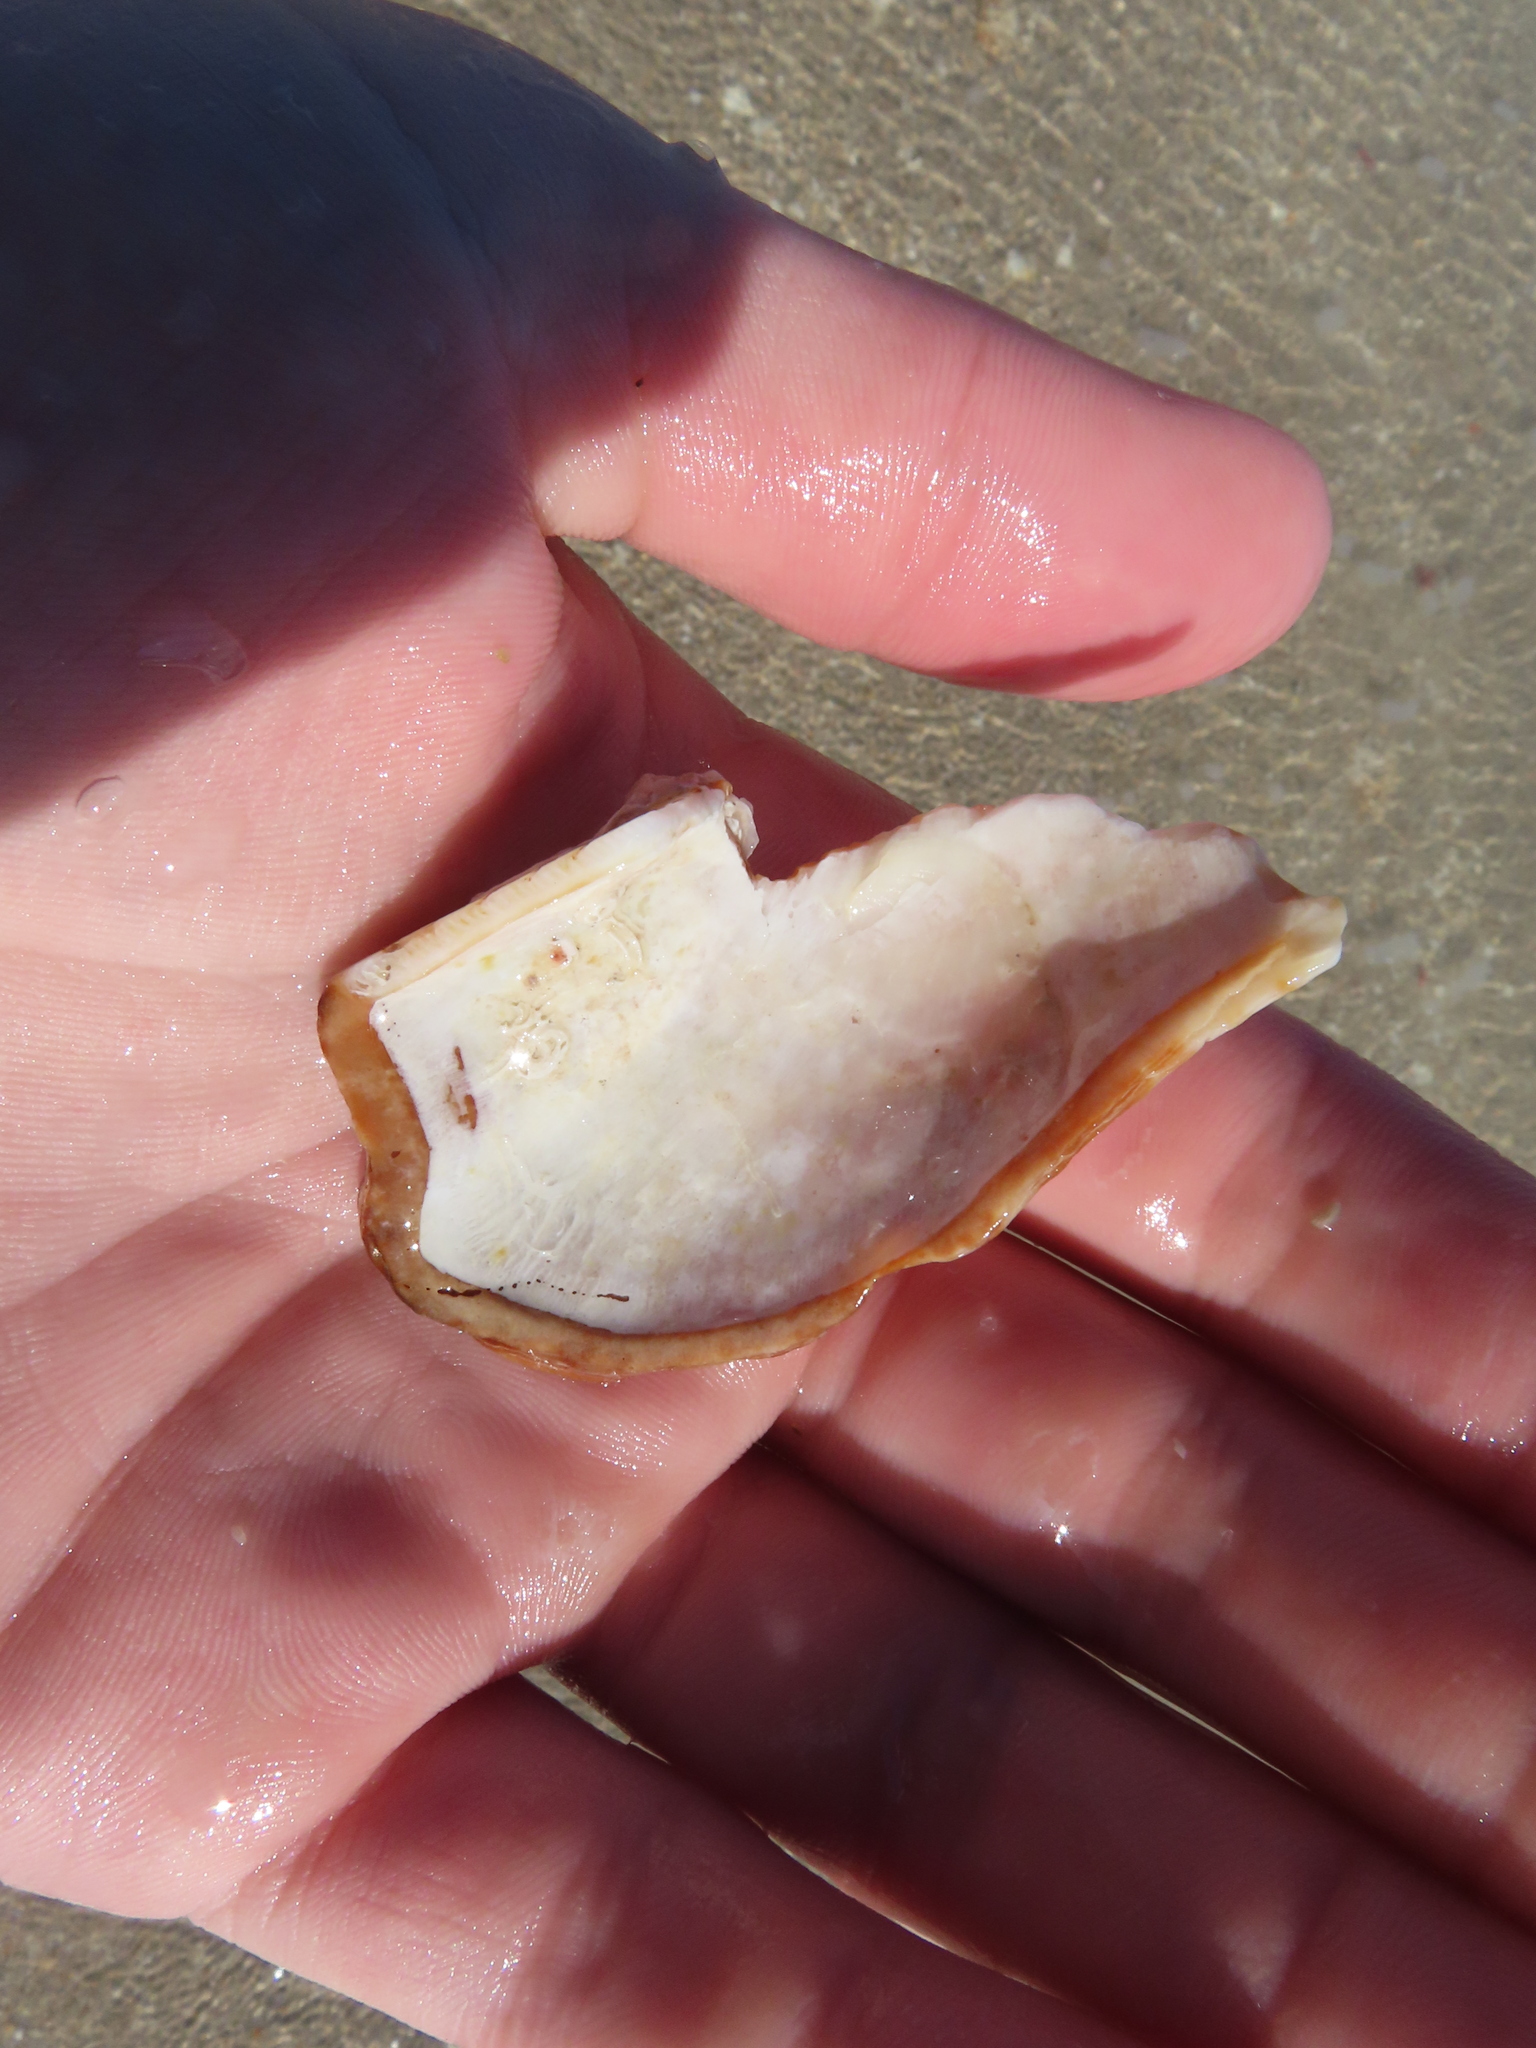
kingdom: Animalia
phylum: Mollusca
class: Bivalvia
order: Arcida
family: Arcidae
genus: Arca
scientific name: Arca zebra
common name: Atlantic turkey wing
